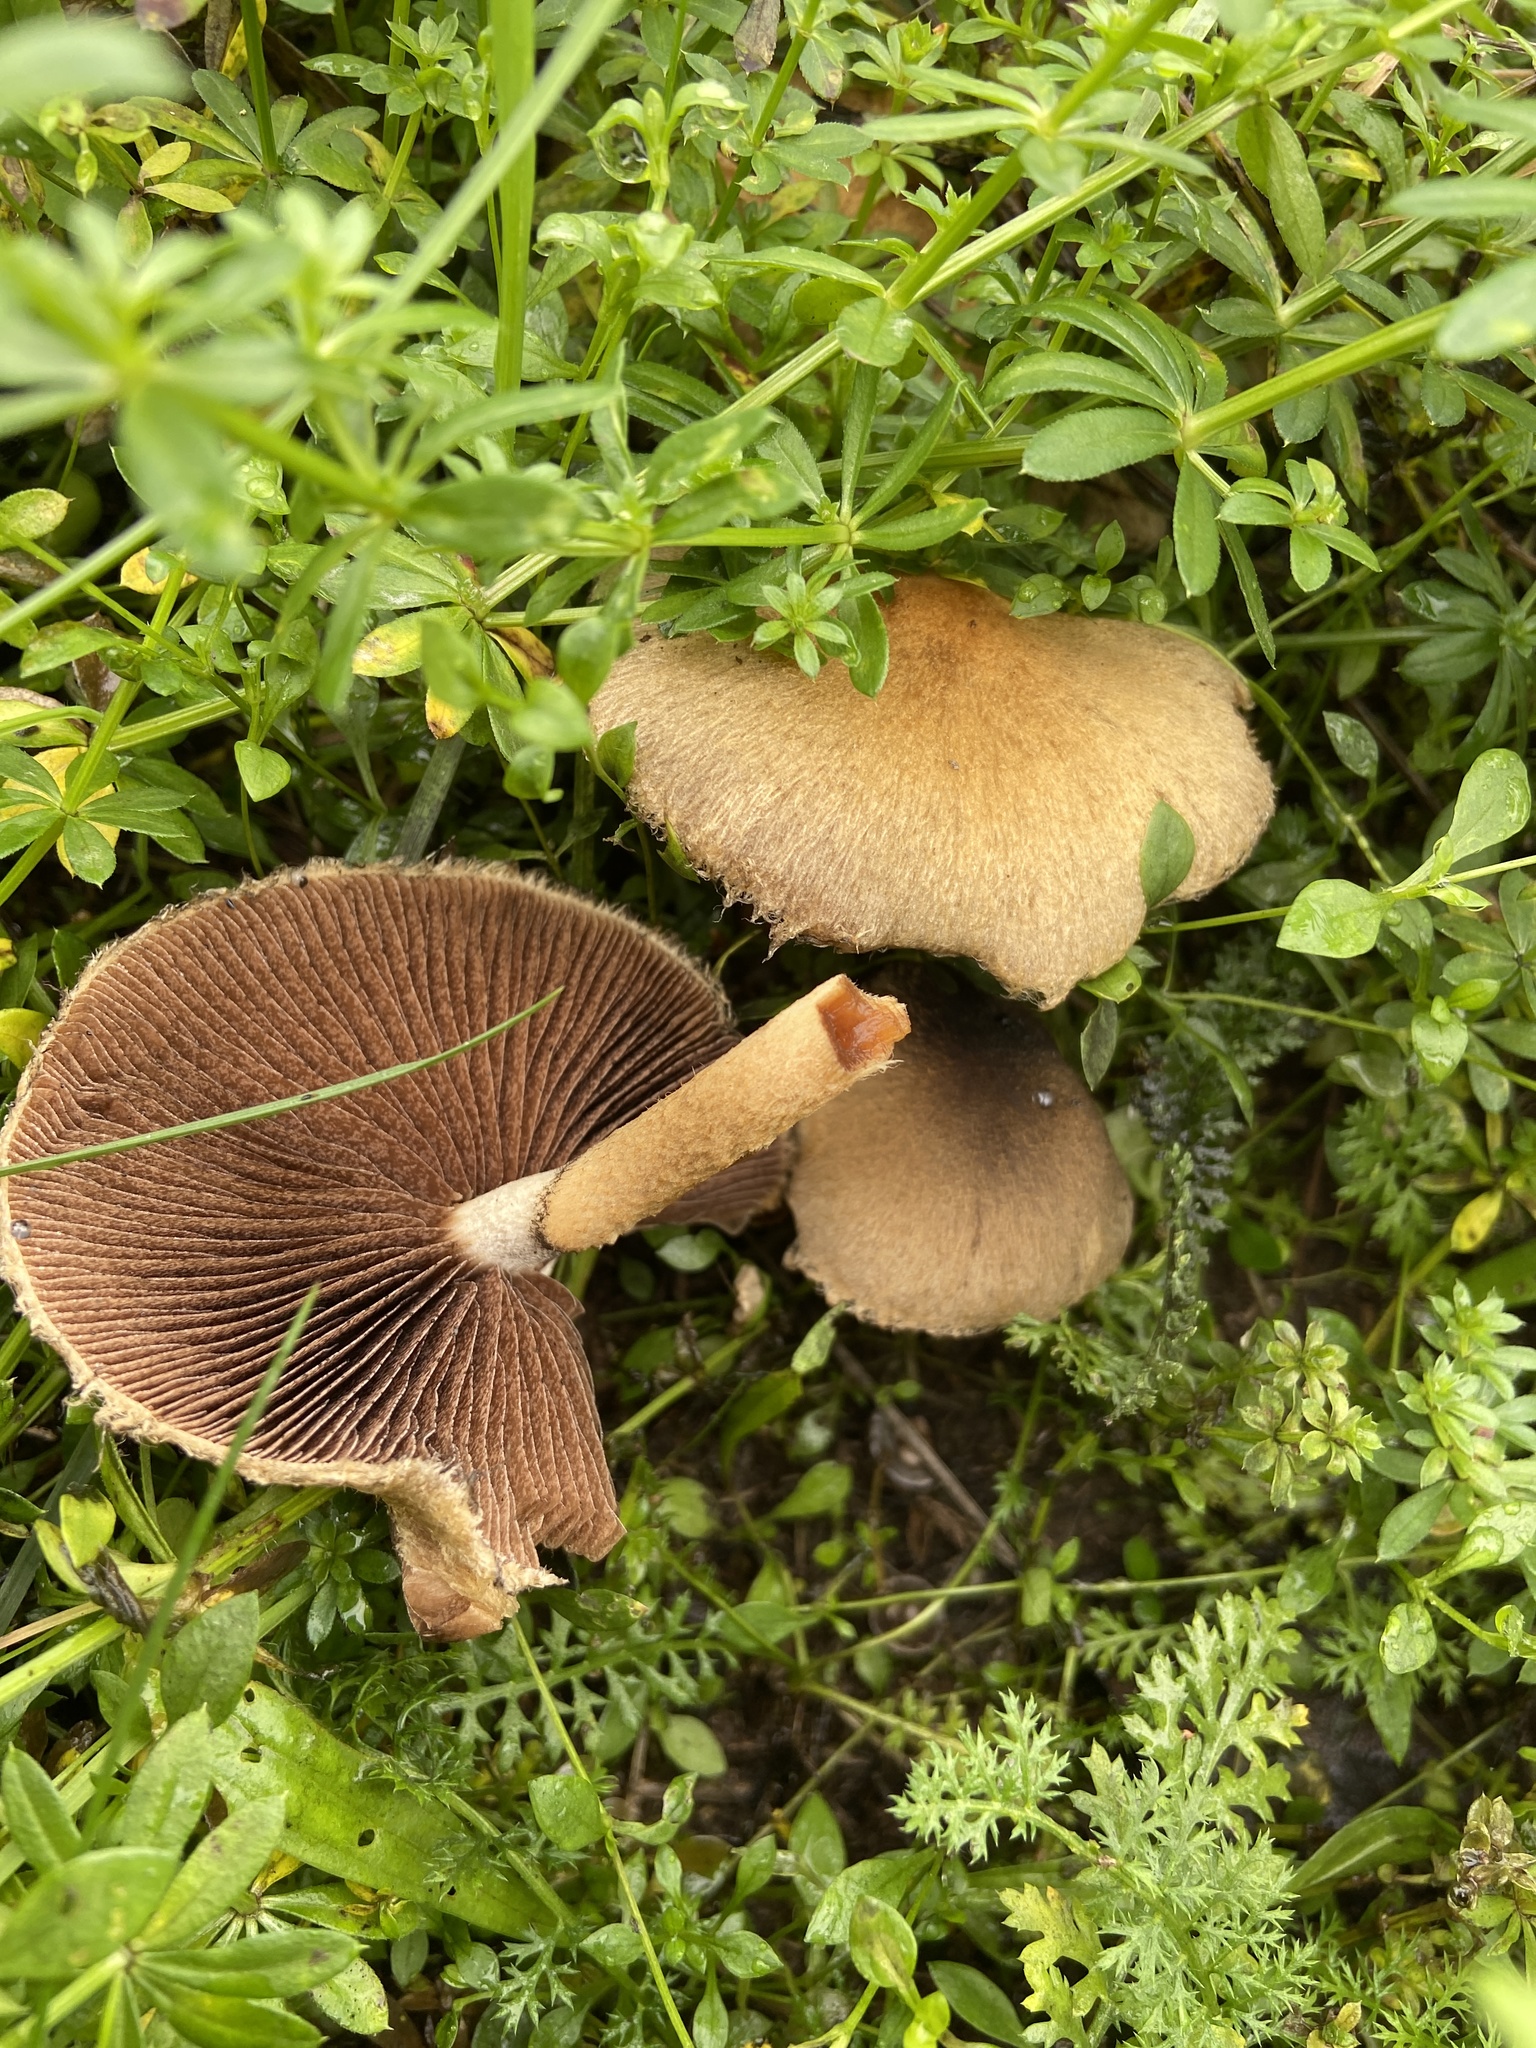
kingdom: Fungi
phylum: Basidiomycota
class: Agaricomycetes
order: Agaricales
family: Psathyrellaceae
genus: Lacrymaria
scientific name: Lacrymaria lacrymabunda
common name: Weeping widow
